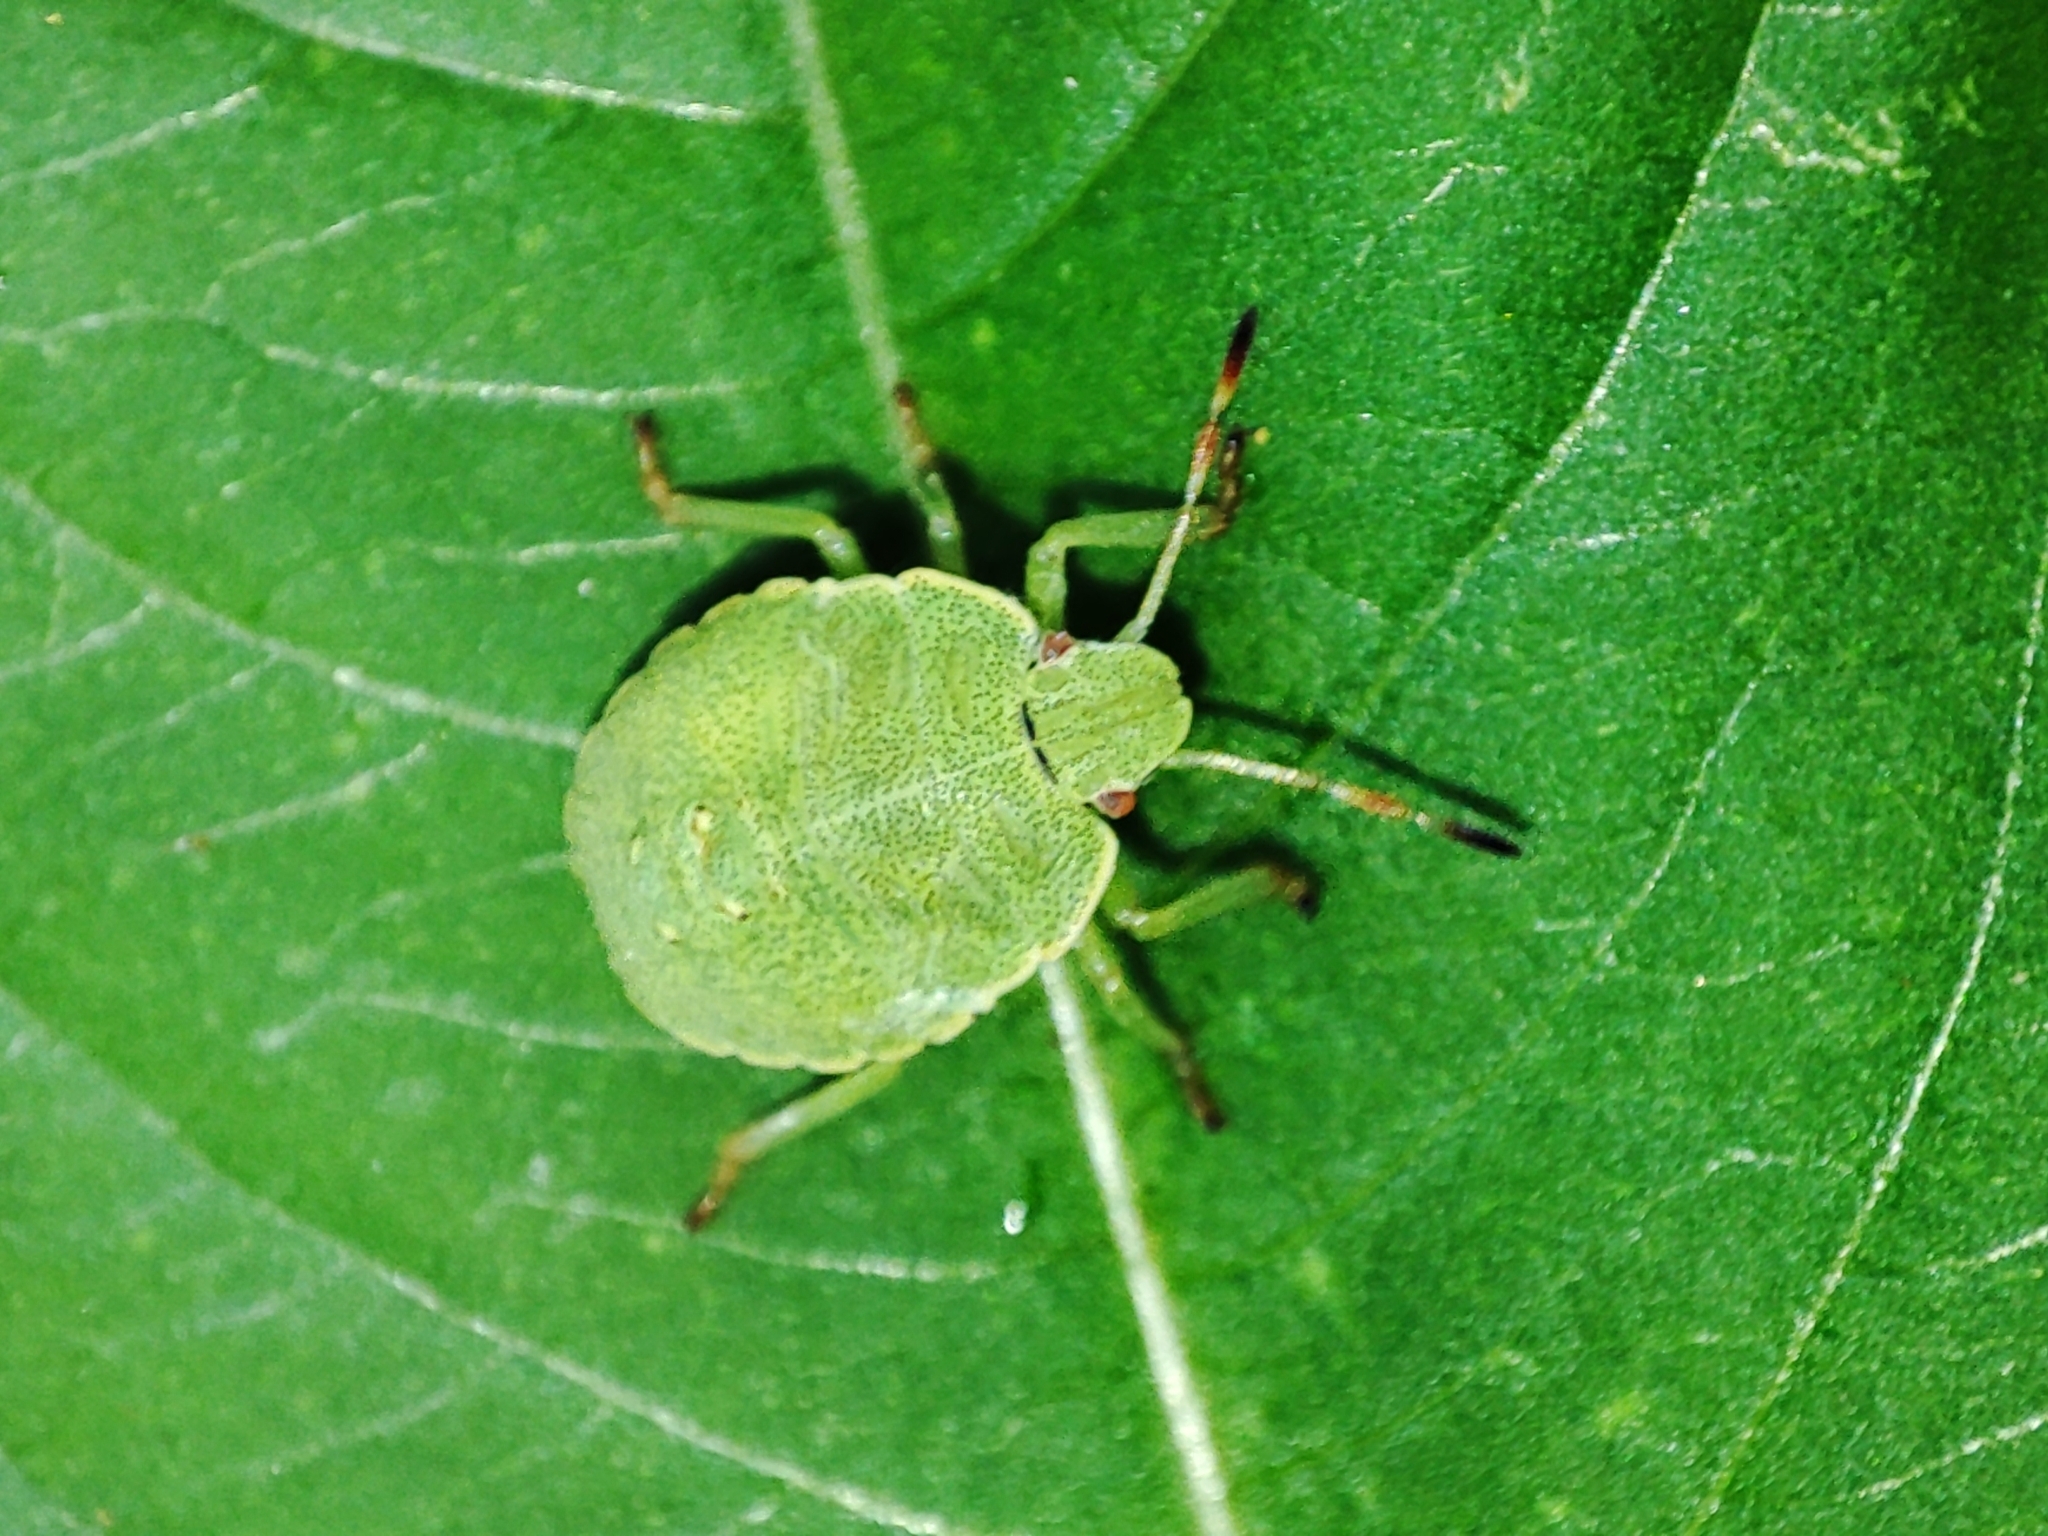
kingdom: Animalia
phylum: Arthropoda
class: Insecta
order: Hemiptera
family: Pentatomidae
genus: Palomena
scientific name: Palomena prasina
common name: Green shieldbug
